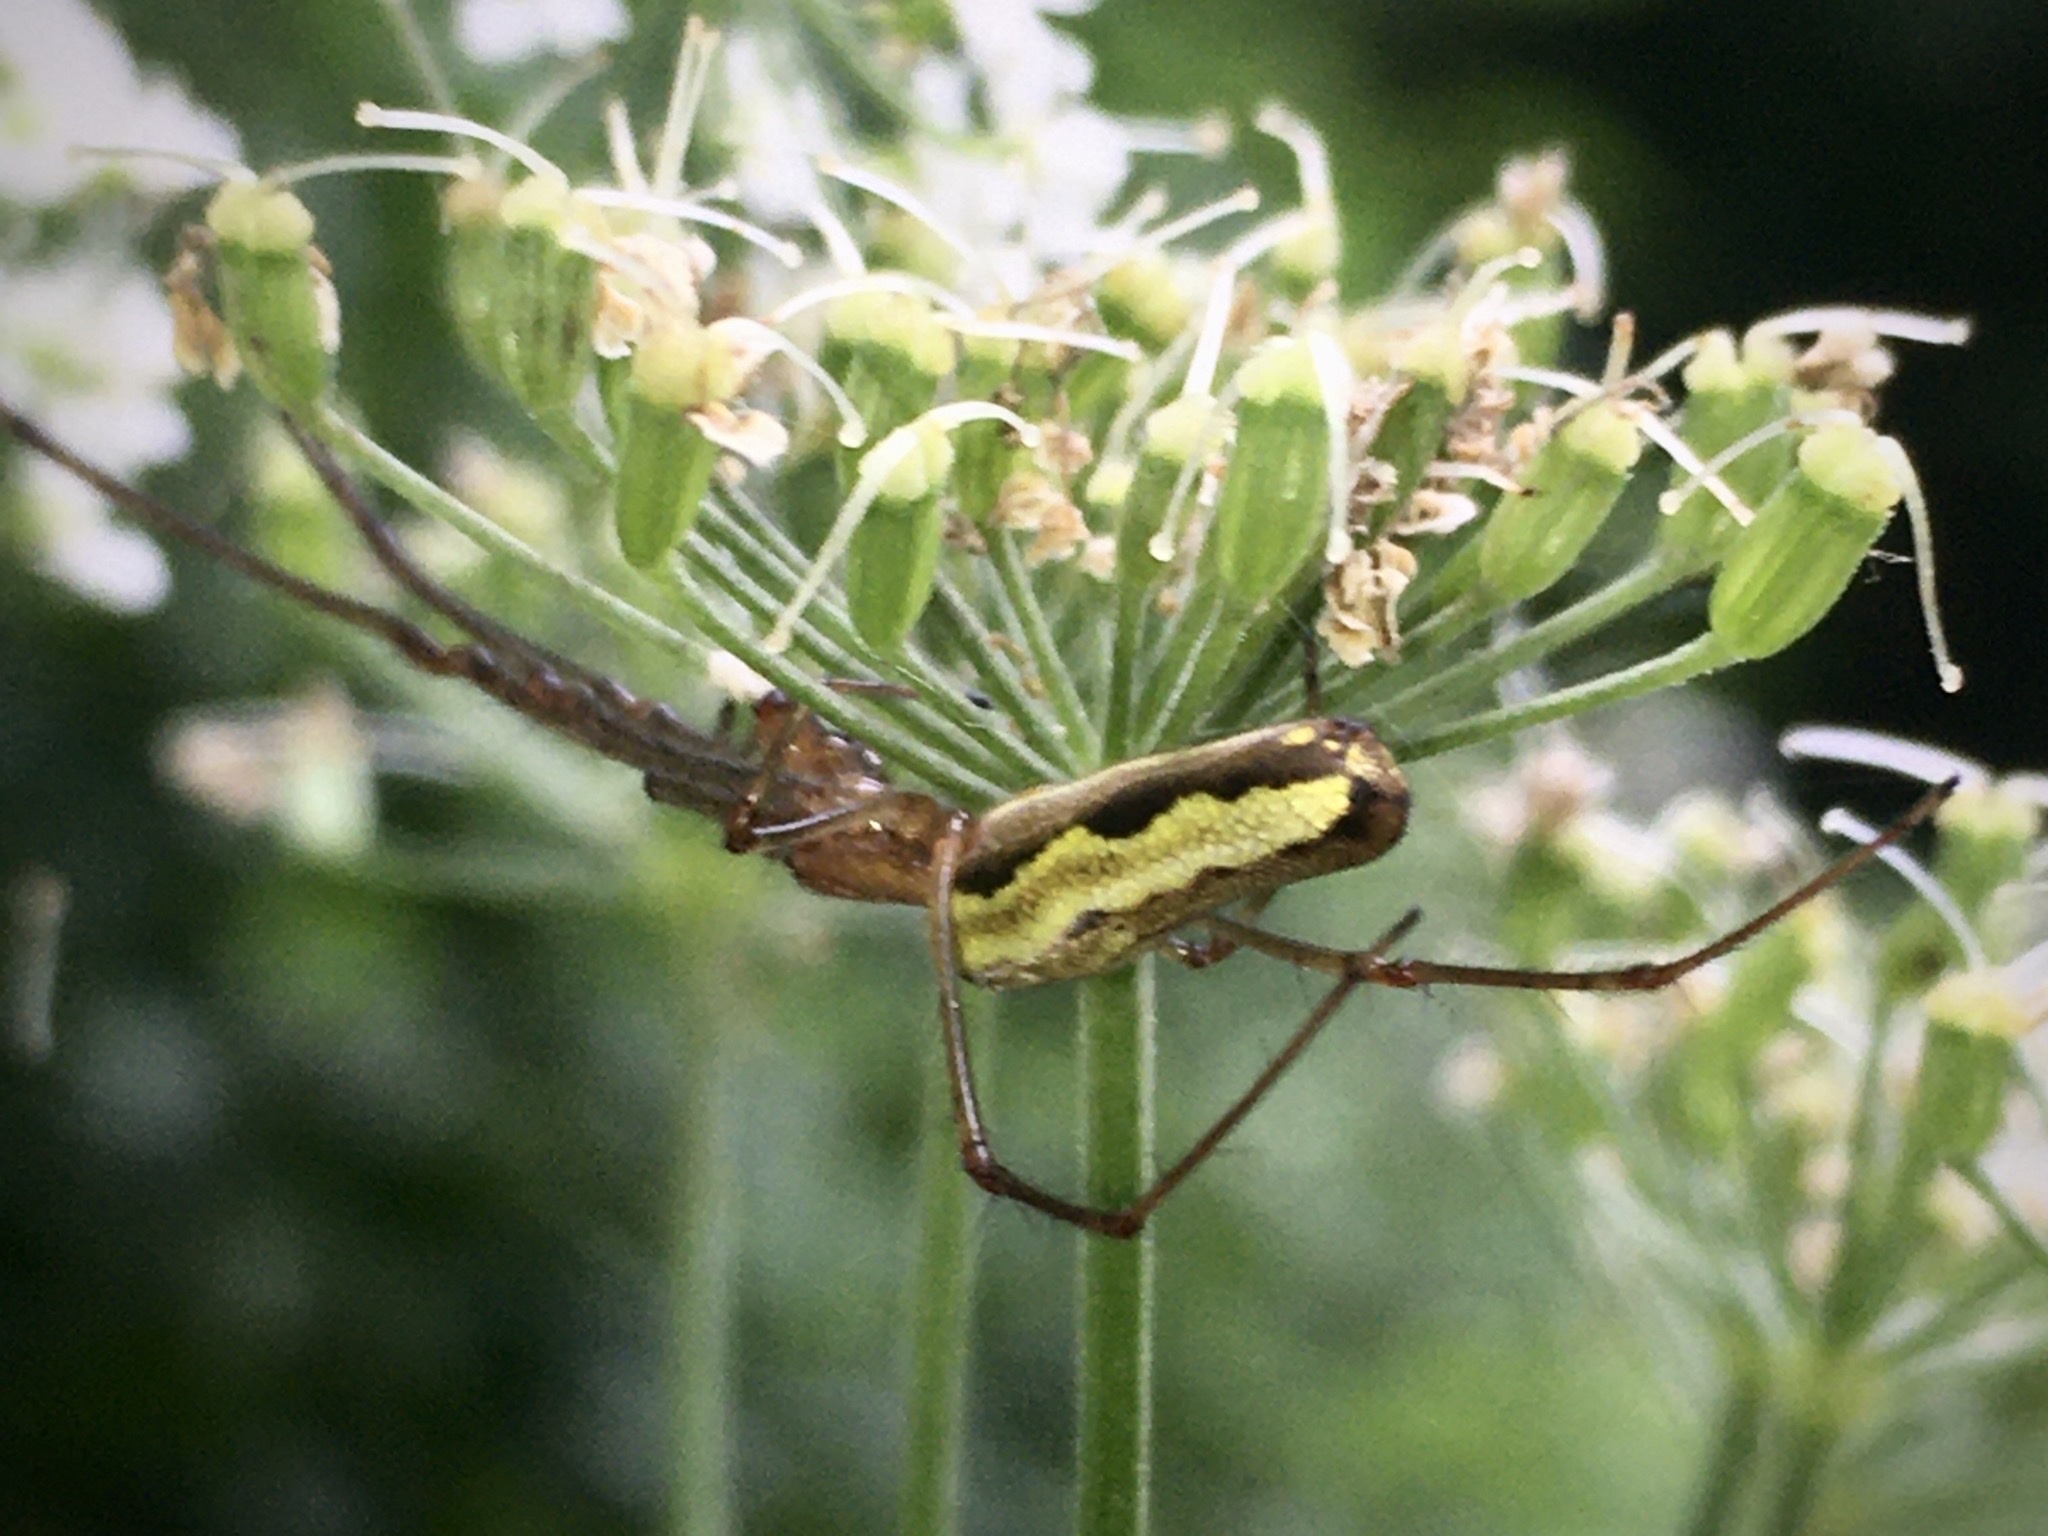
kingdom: Animalia
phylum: Arthropoda
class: Arachnida
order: Araneae
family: Tetragnathidae
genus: Tetragnatha
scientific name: Tetragnatha
